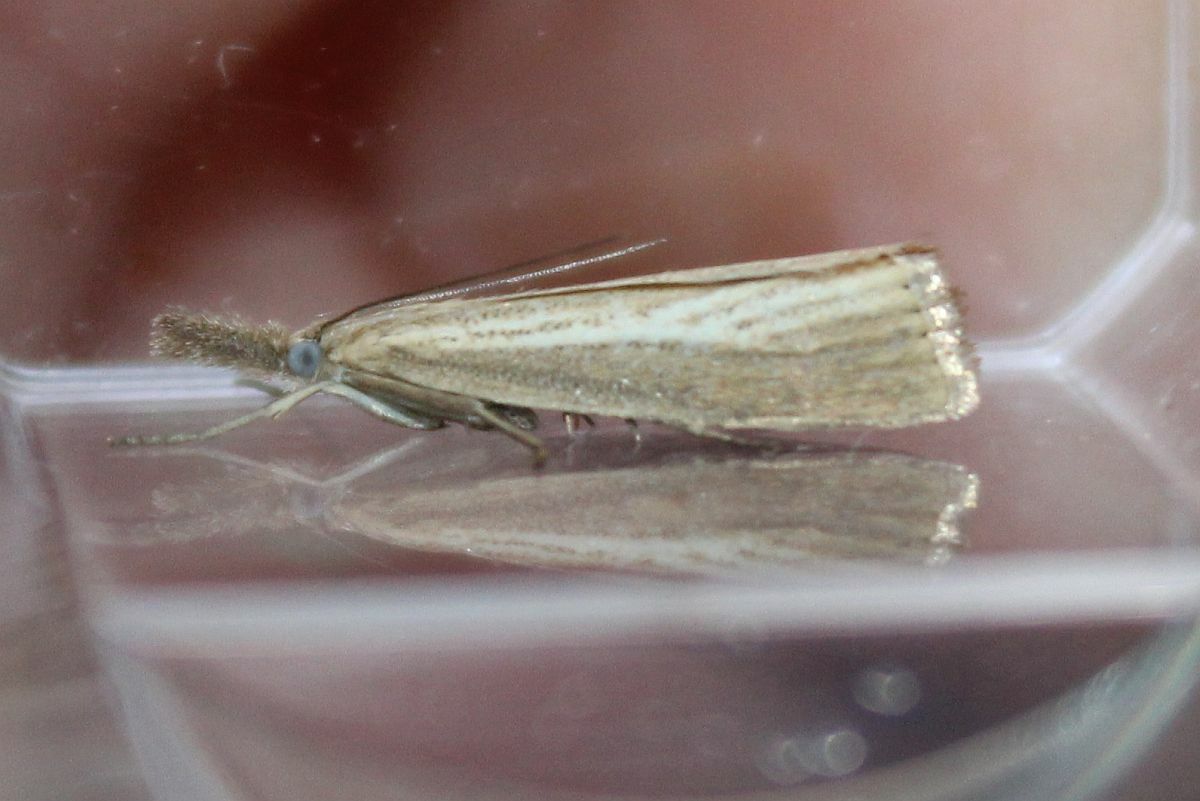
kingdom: Animalia
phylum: Arthropoda
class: Insecta
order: Lepidoptera
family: Crambidae
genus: Agriphila
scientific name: Agriphila straminella
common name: Straw grass-veneer
